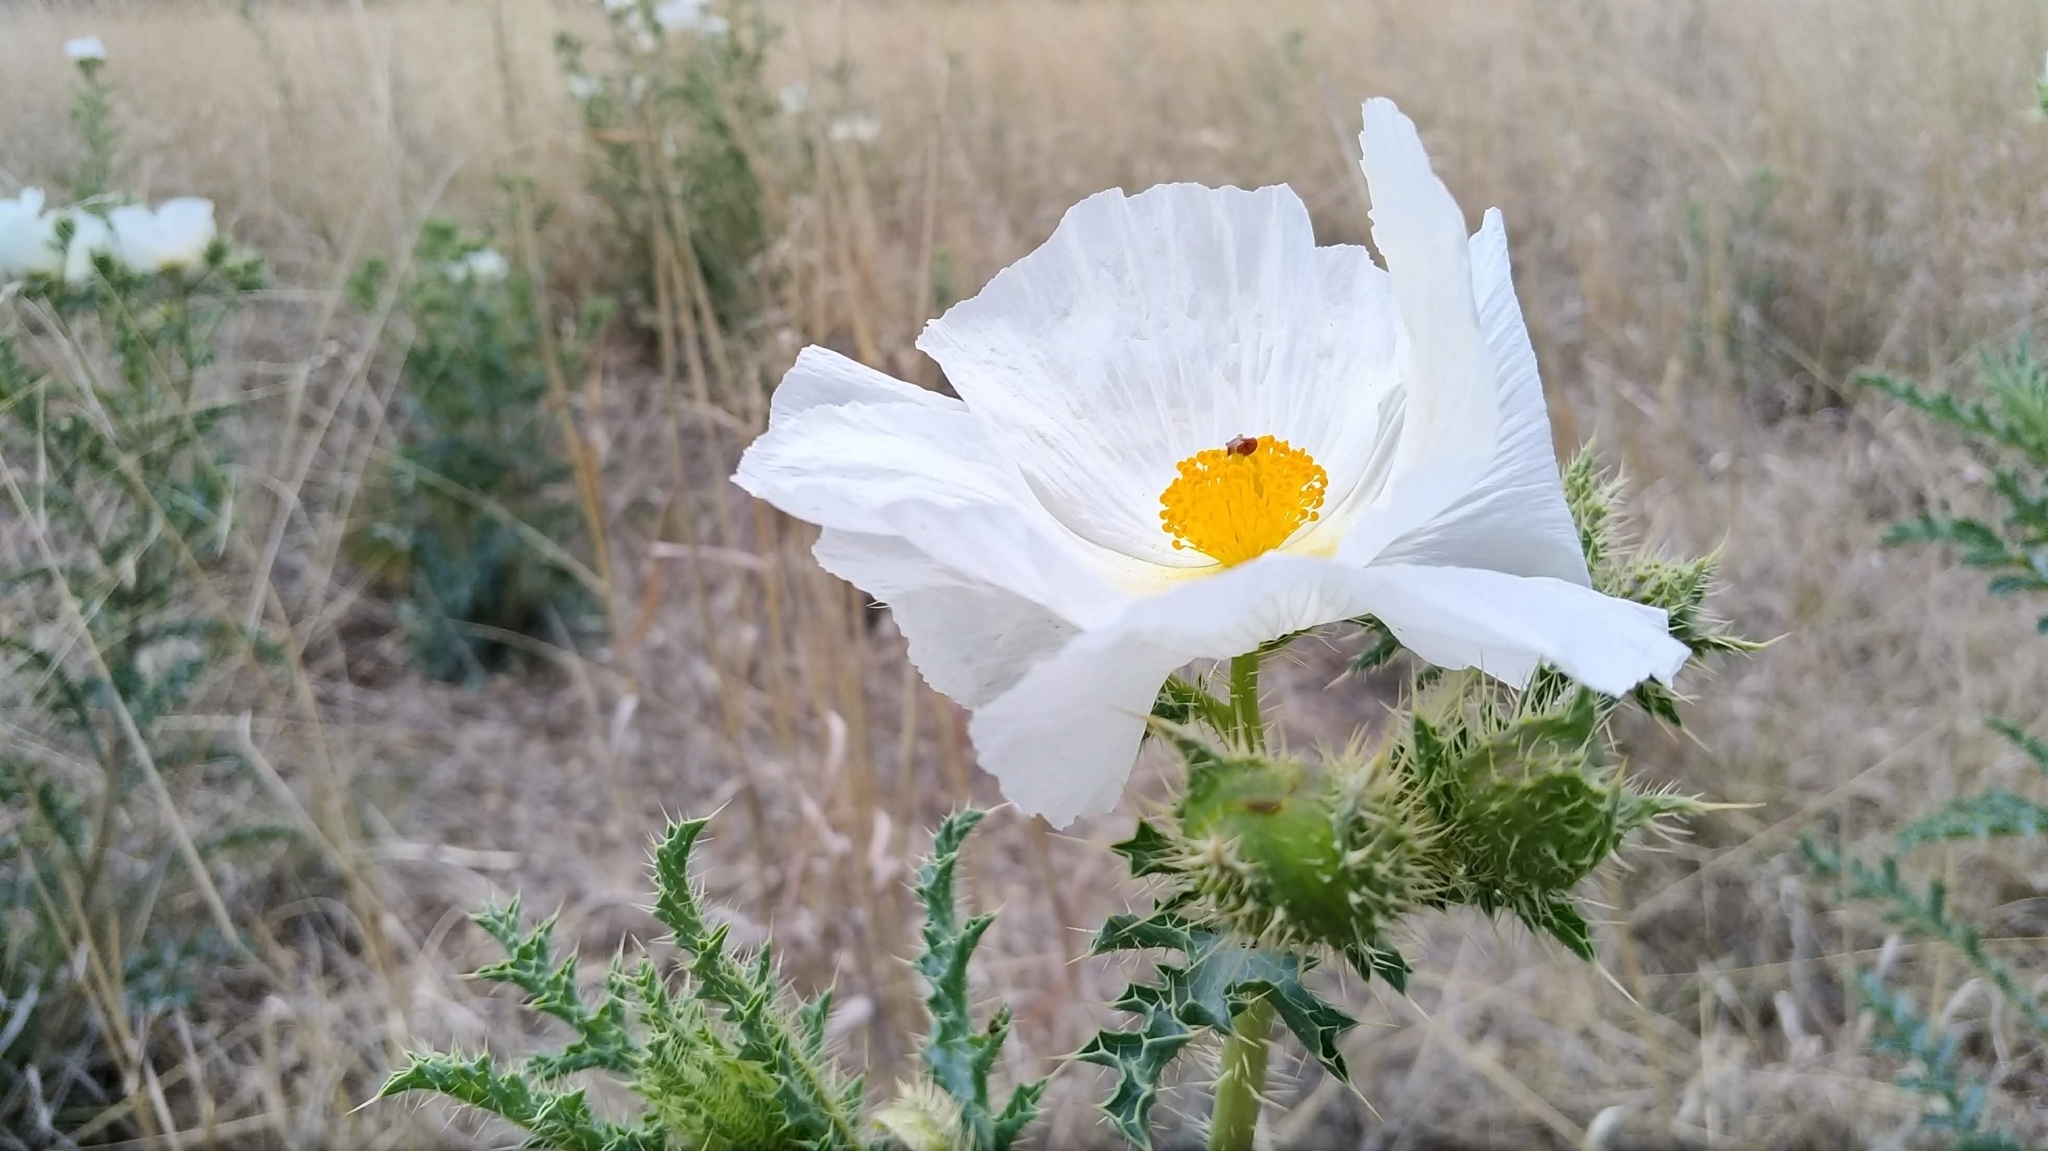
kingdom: Plantae
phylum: Tracheophyta
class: Magnoliopsida
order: Ranunculales
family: Papaveraceae
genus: Argemone
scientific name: Argemone pleiacantha
